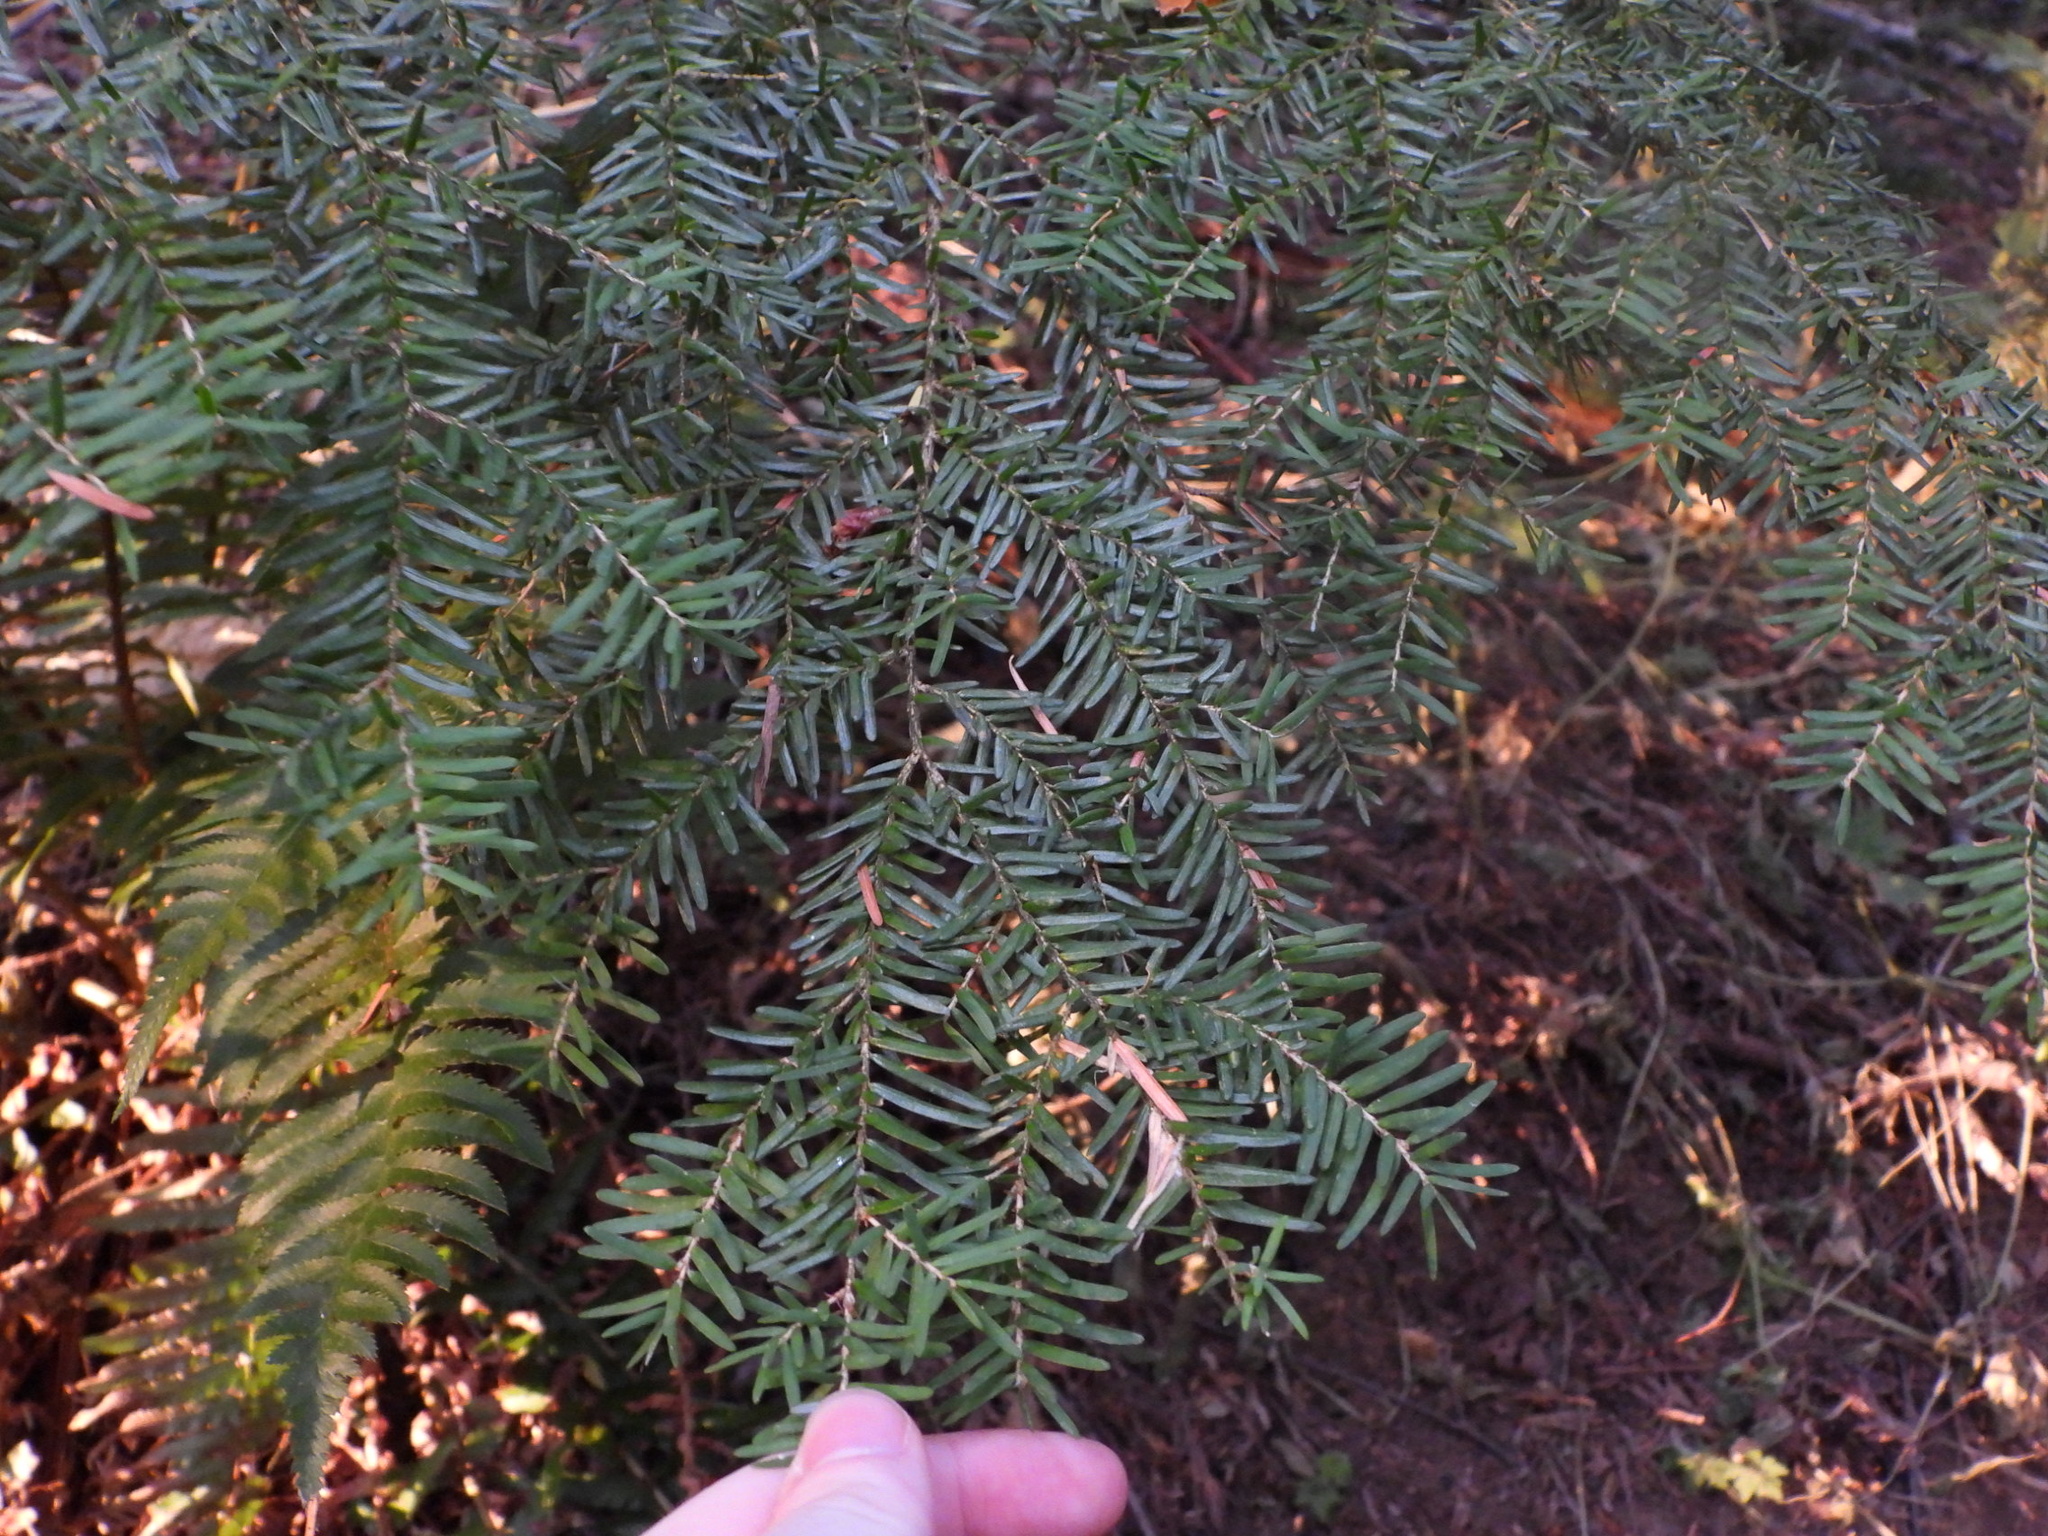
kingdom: Plantae
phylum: Tracheophyta
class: Pinopsida
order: Pinales
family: Pinaceae
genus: Tsuga
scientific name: Tsuga heterophylla
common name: Western hemlock
